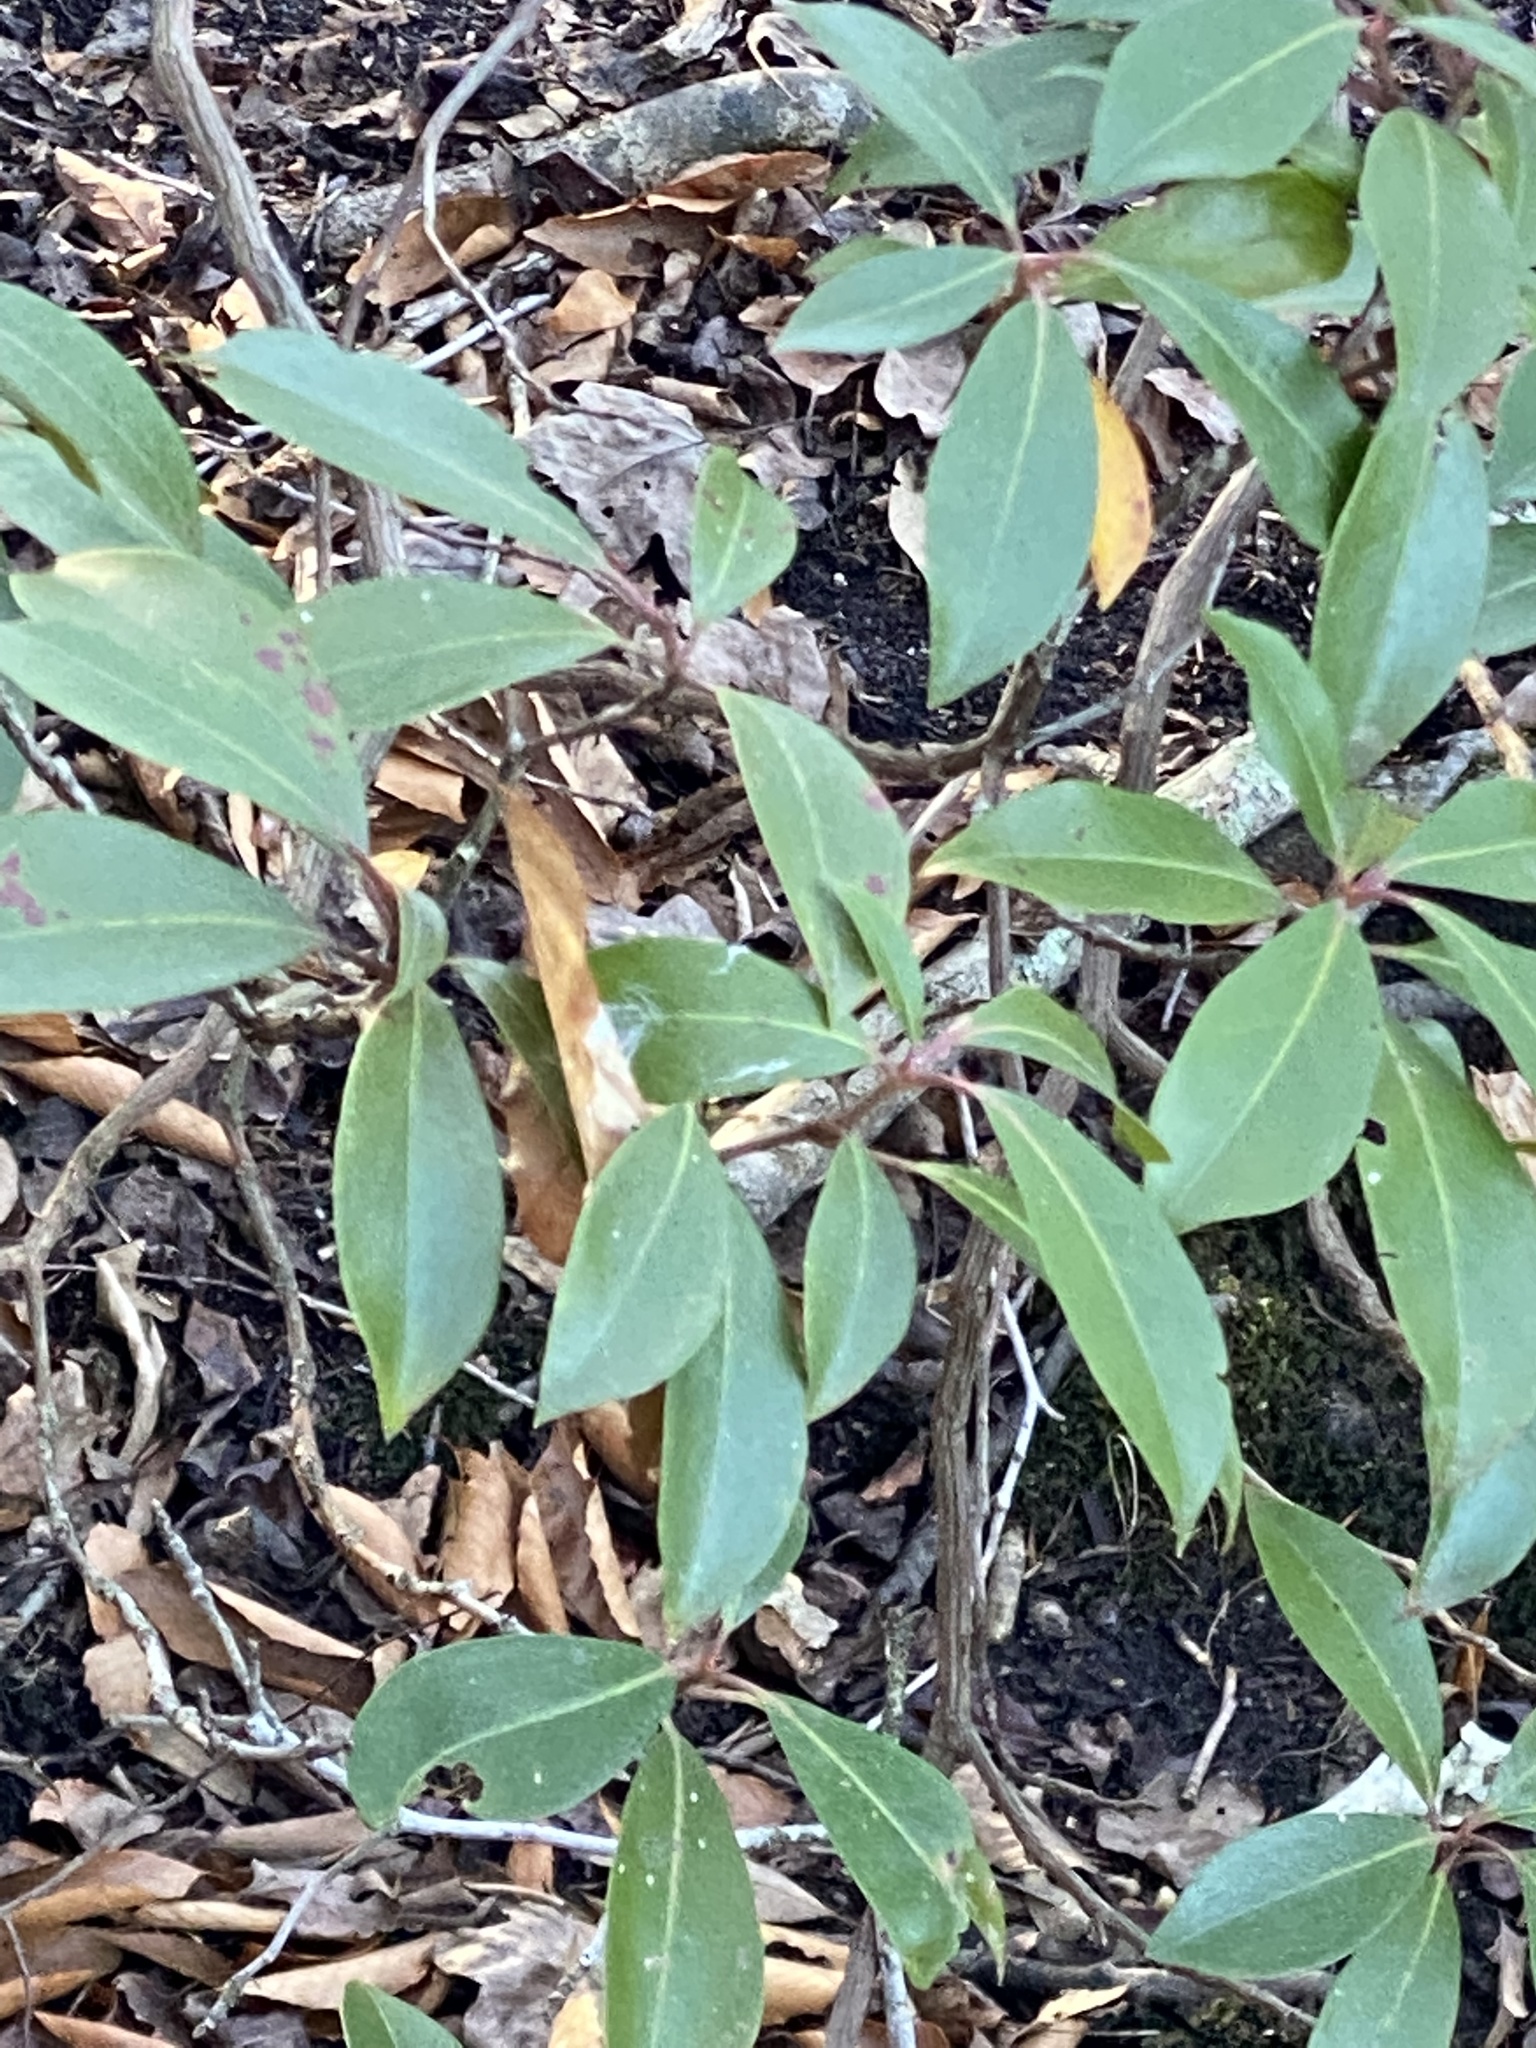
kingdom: Plantae
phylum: Tracheophyta
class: Magnoliopsida
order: Ericales
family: Ericaceae
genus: Kalmia
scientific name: Kalmia latifolia
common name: Mountain-laurel
